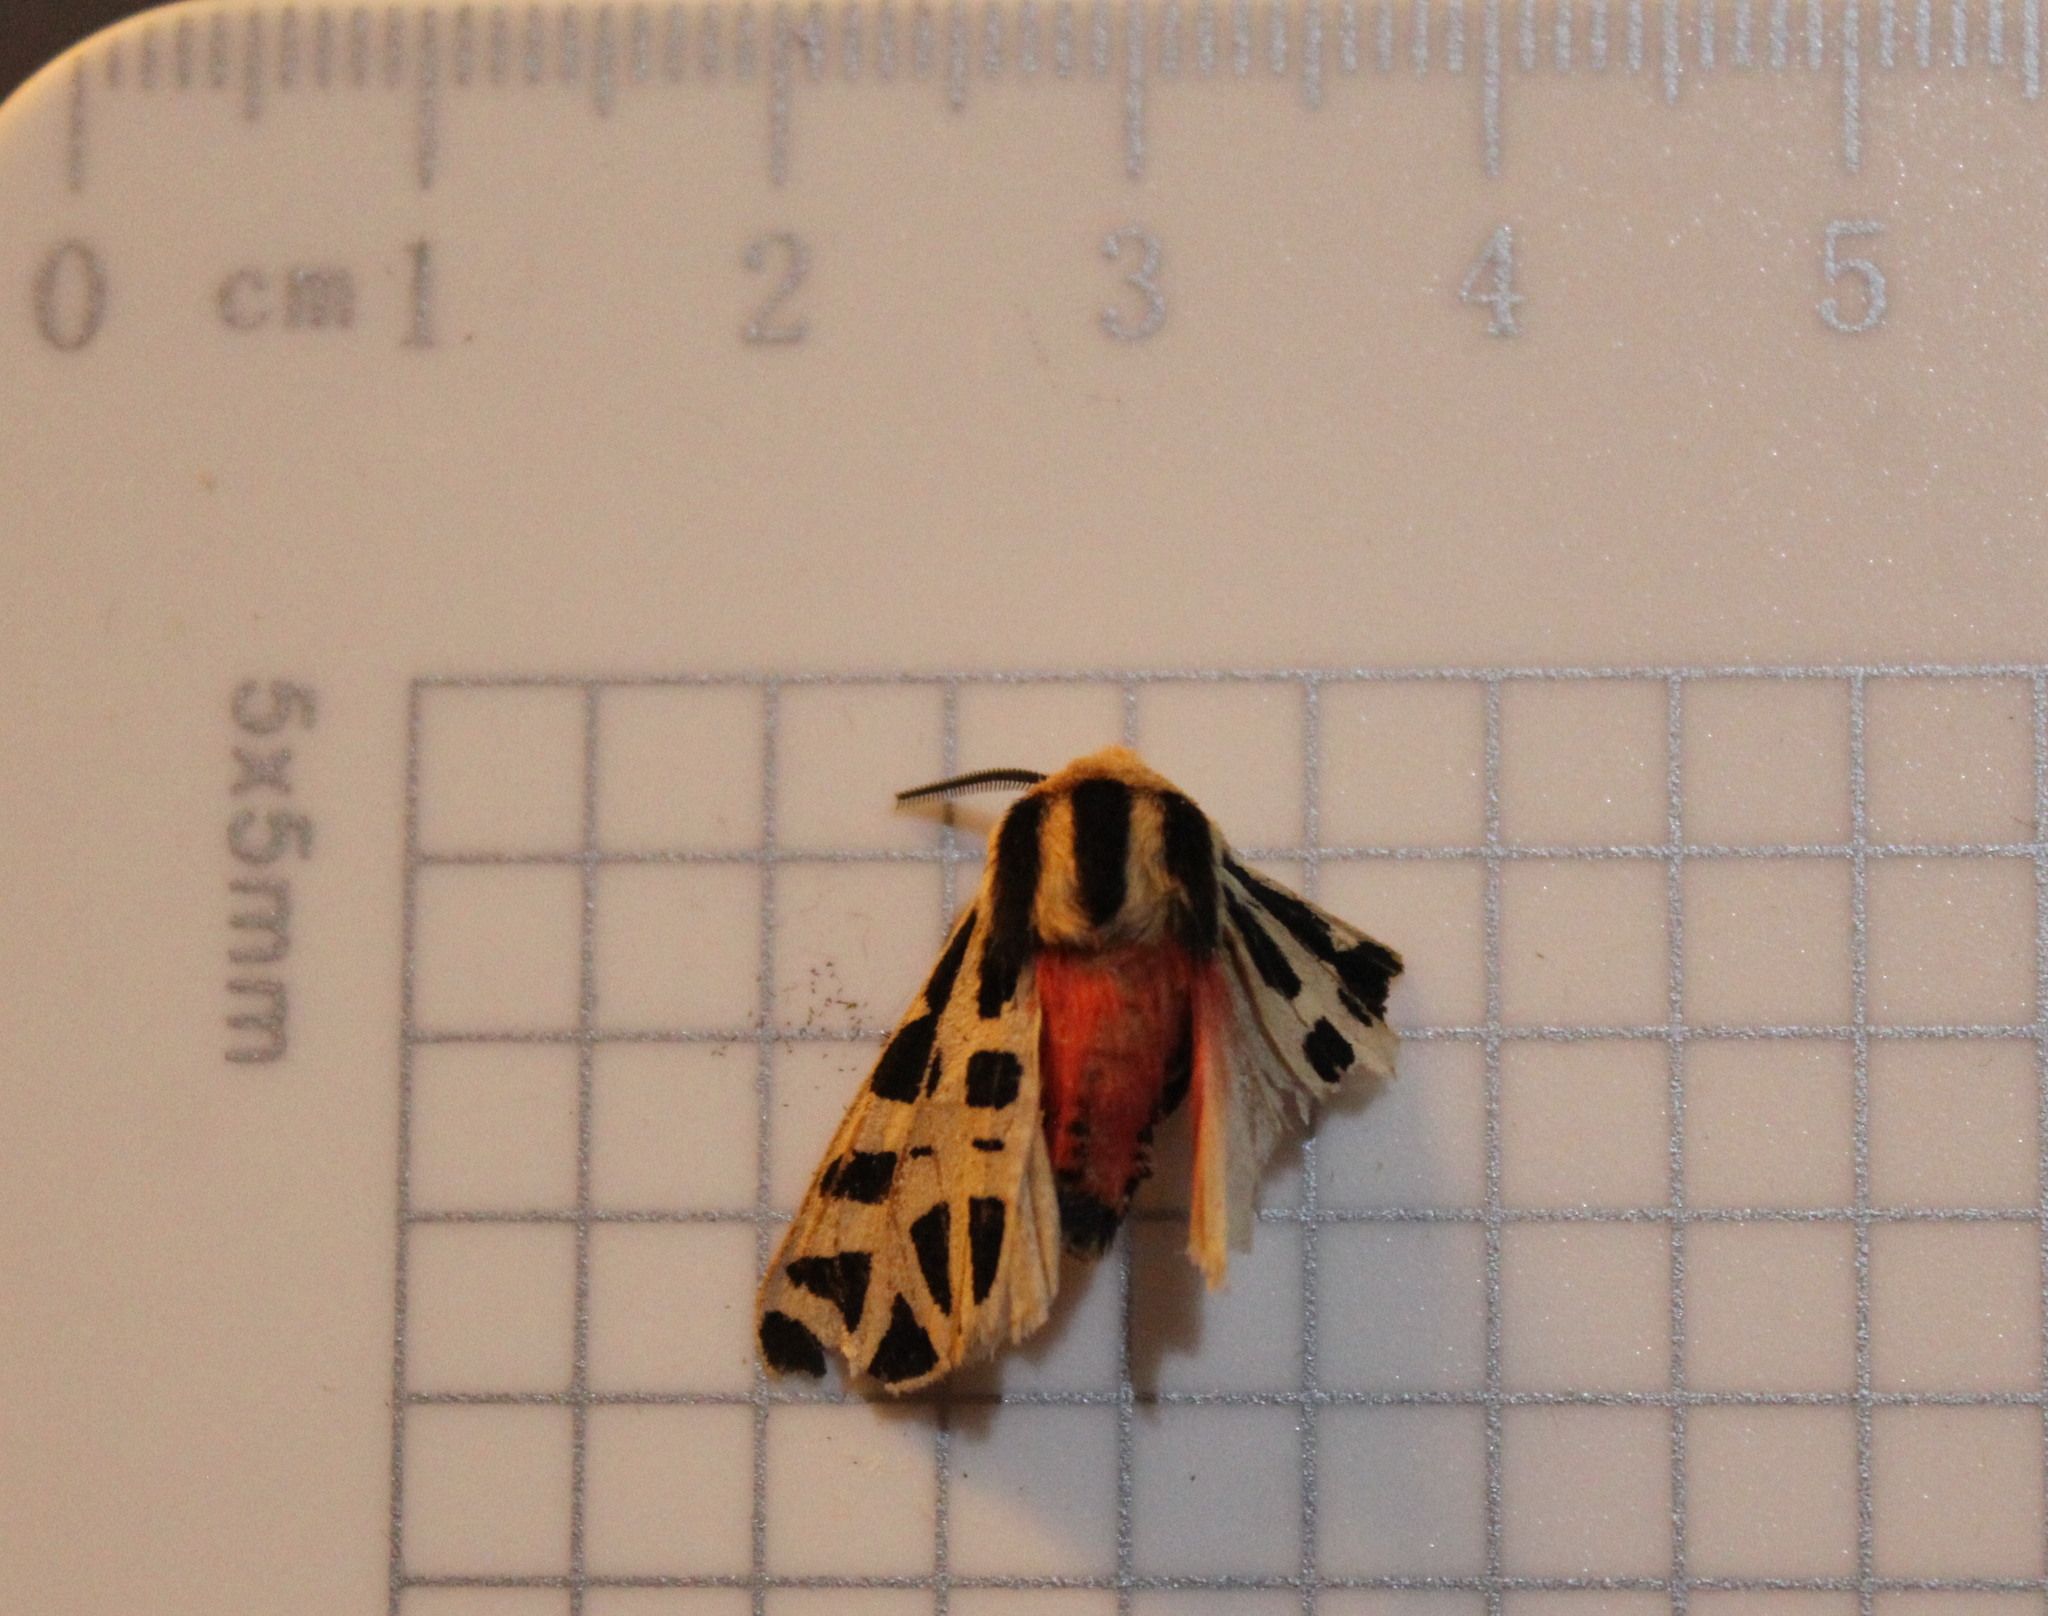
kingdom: Animalia
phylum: Arthropoda
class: Insecta
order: Lepidoptera
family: Erebidae
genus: Apantesis
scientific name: Apantesis
